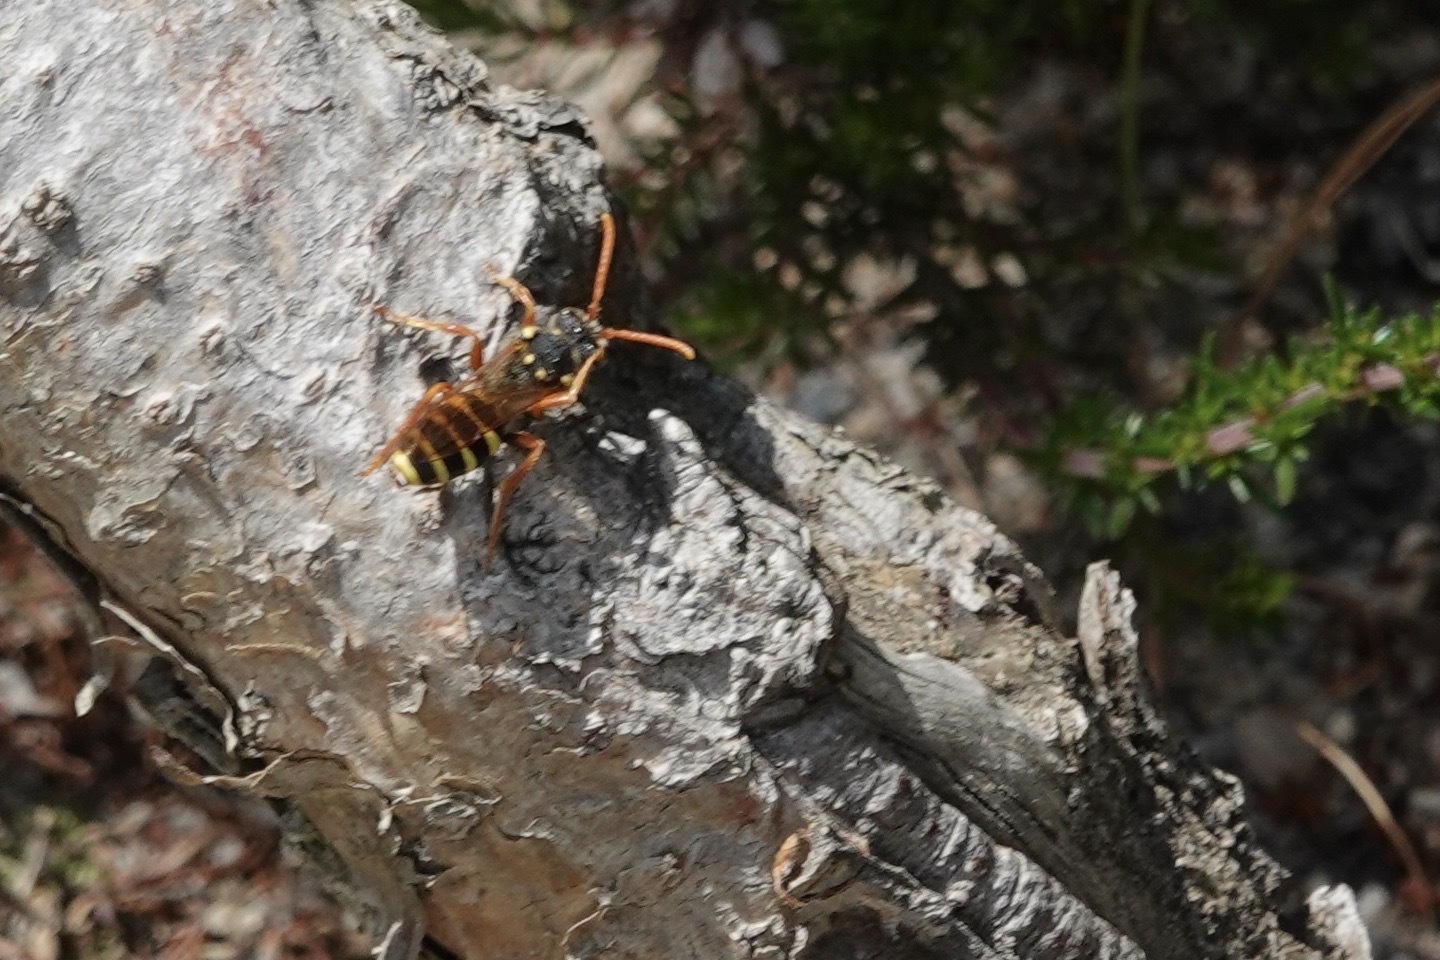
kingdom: Animalia
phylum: Arthropoda
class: Insecta
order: Hymenoptera
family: Apidae
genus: Nomada
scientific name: Nomada goodeniana
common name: Gooden's nomad bee
